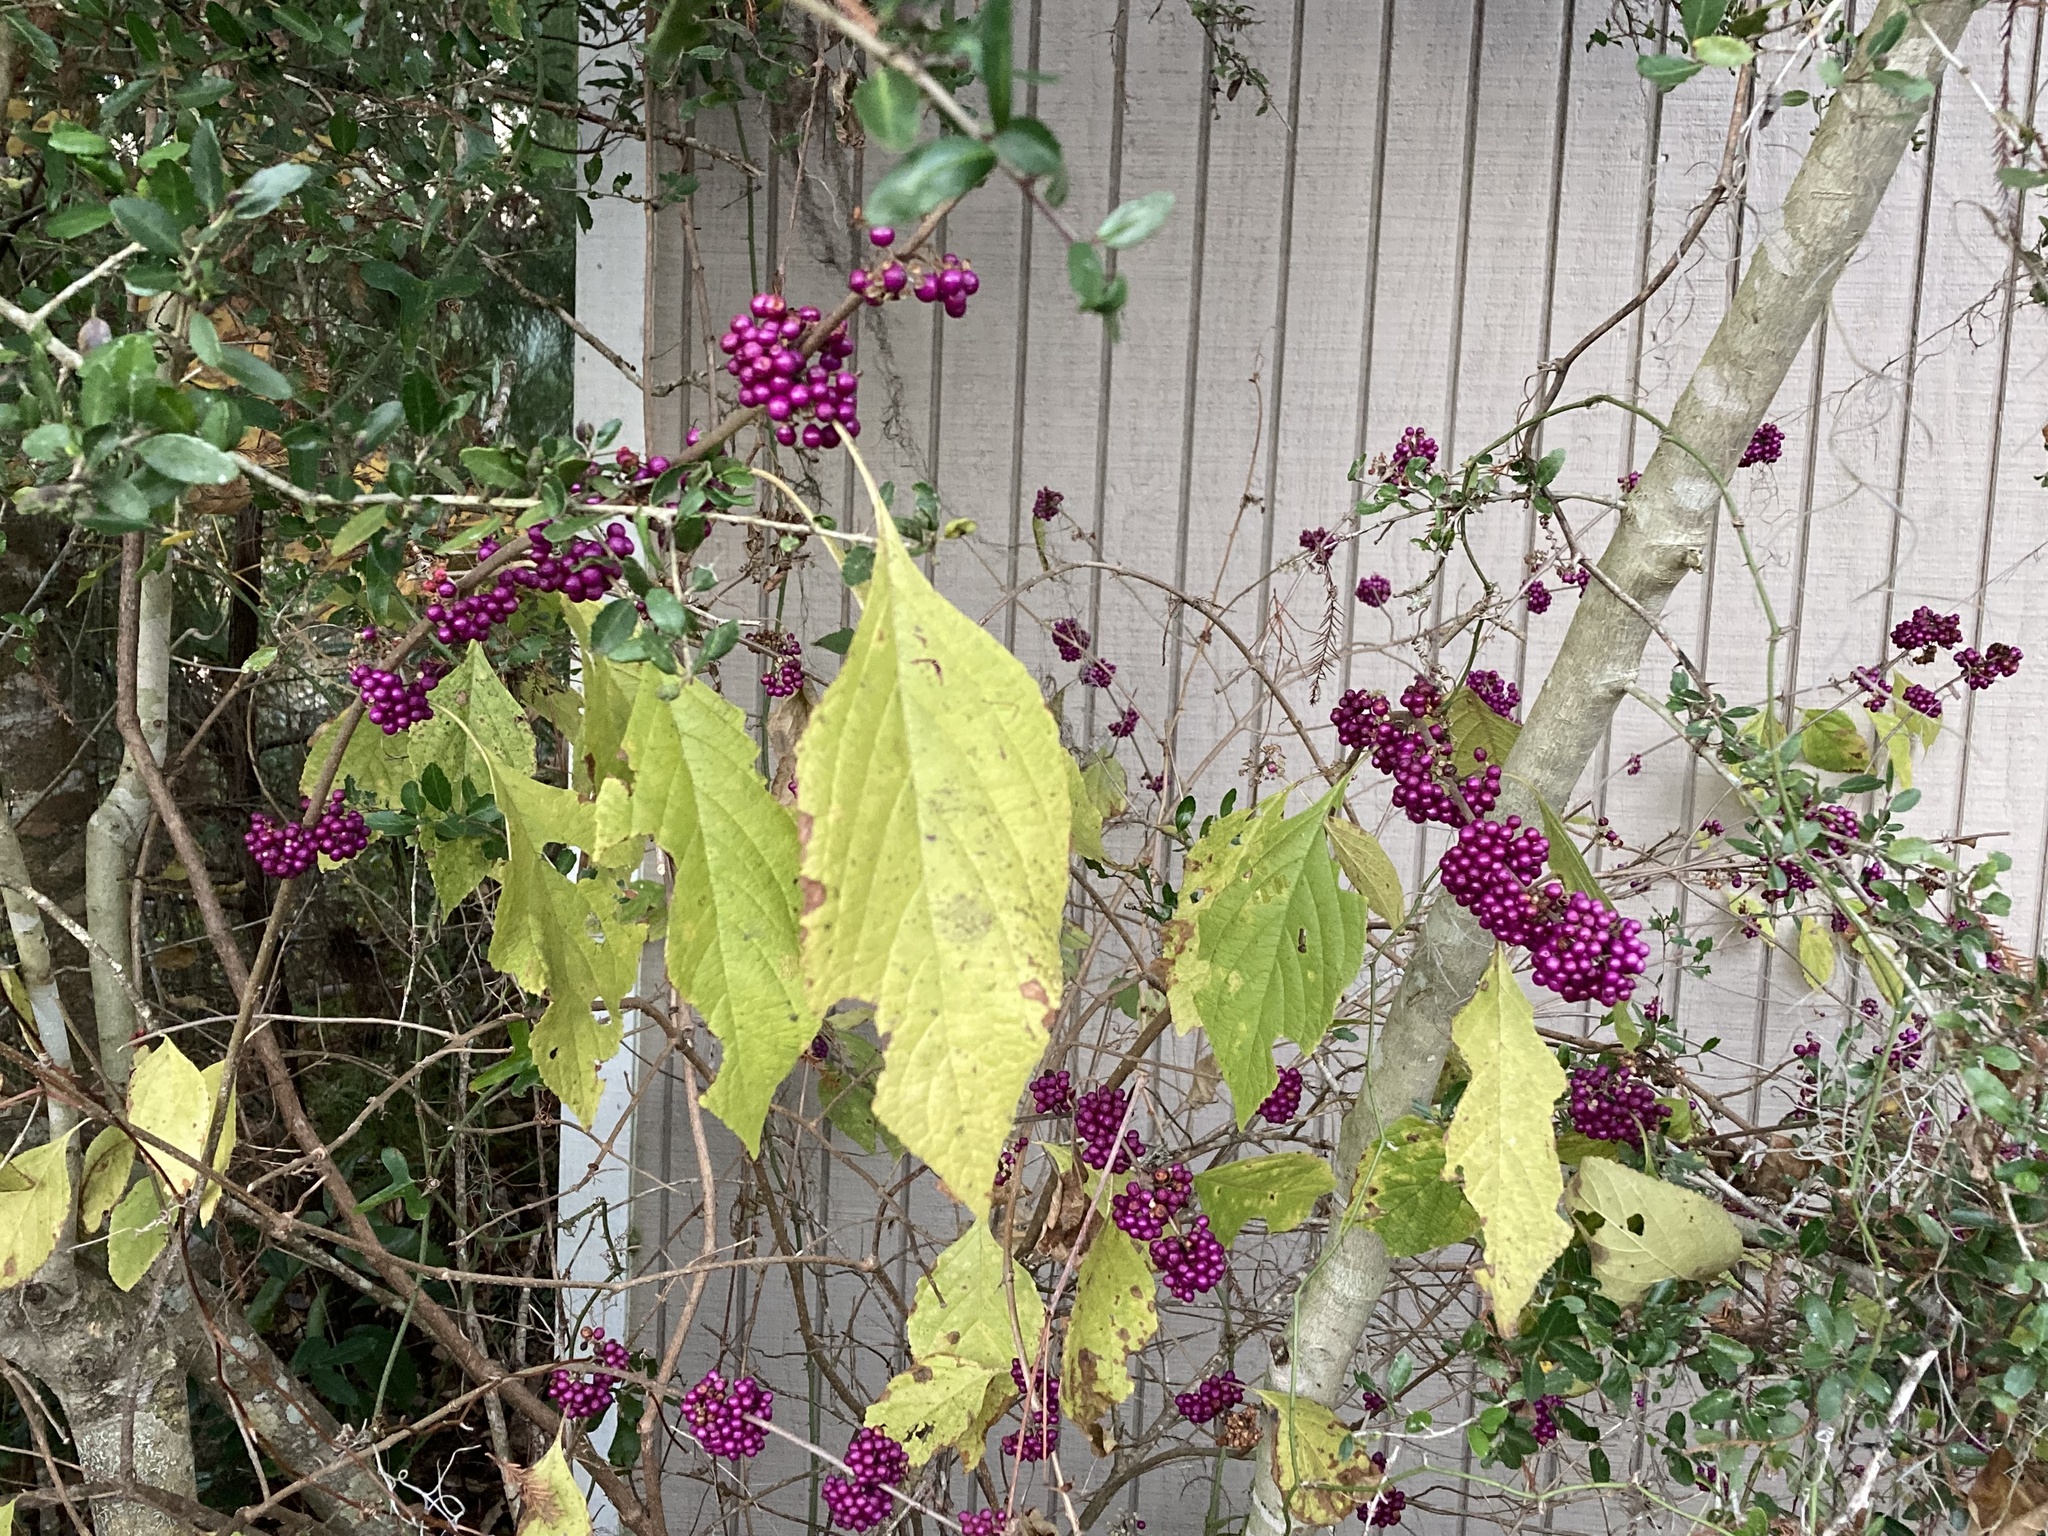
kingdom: Plantae
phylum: Tracheophyta
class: Magnoliopsida
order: Lamiales
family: Lamiaceae
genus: Callicarpa
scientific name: Callicarpa americana
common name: American beautyberry
